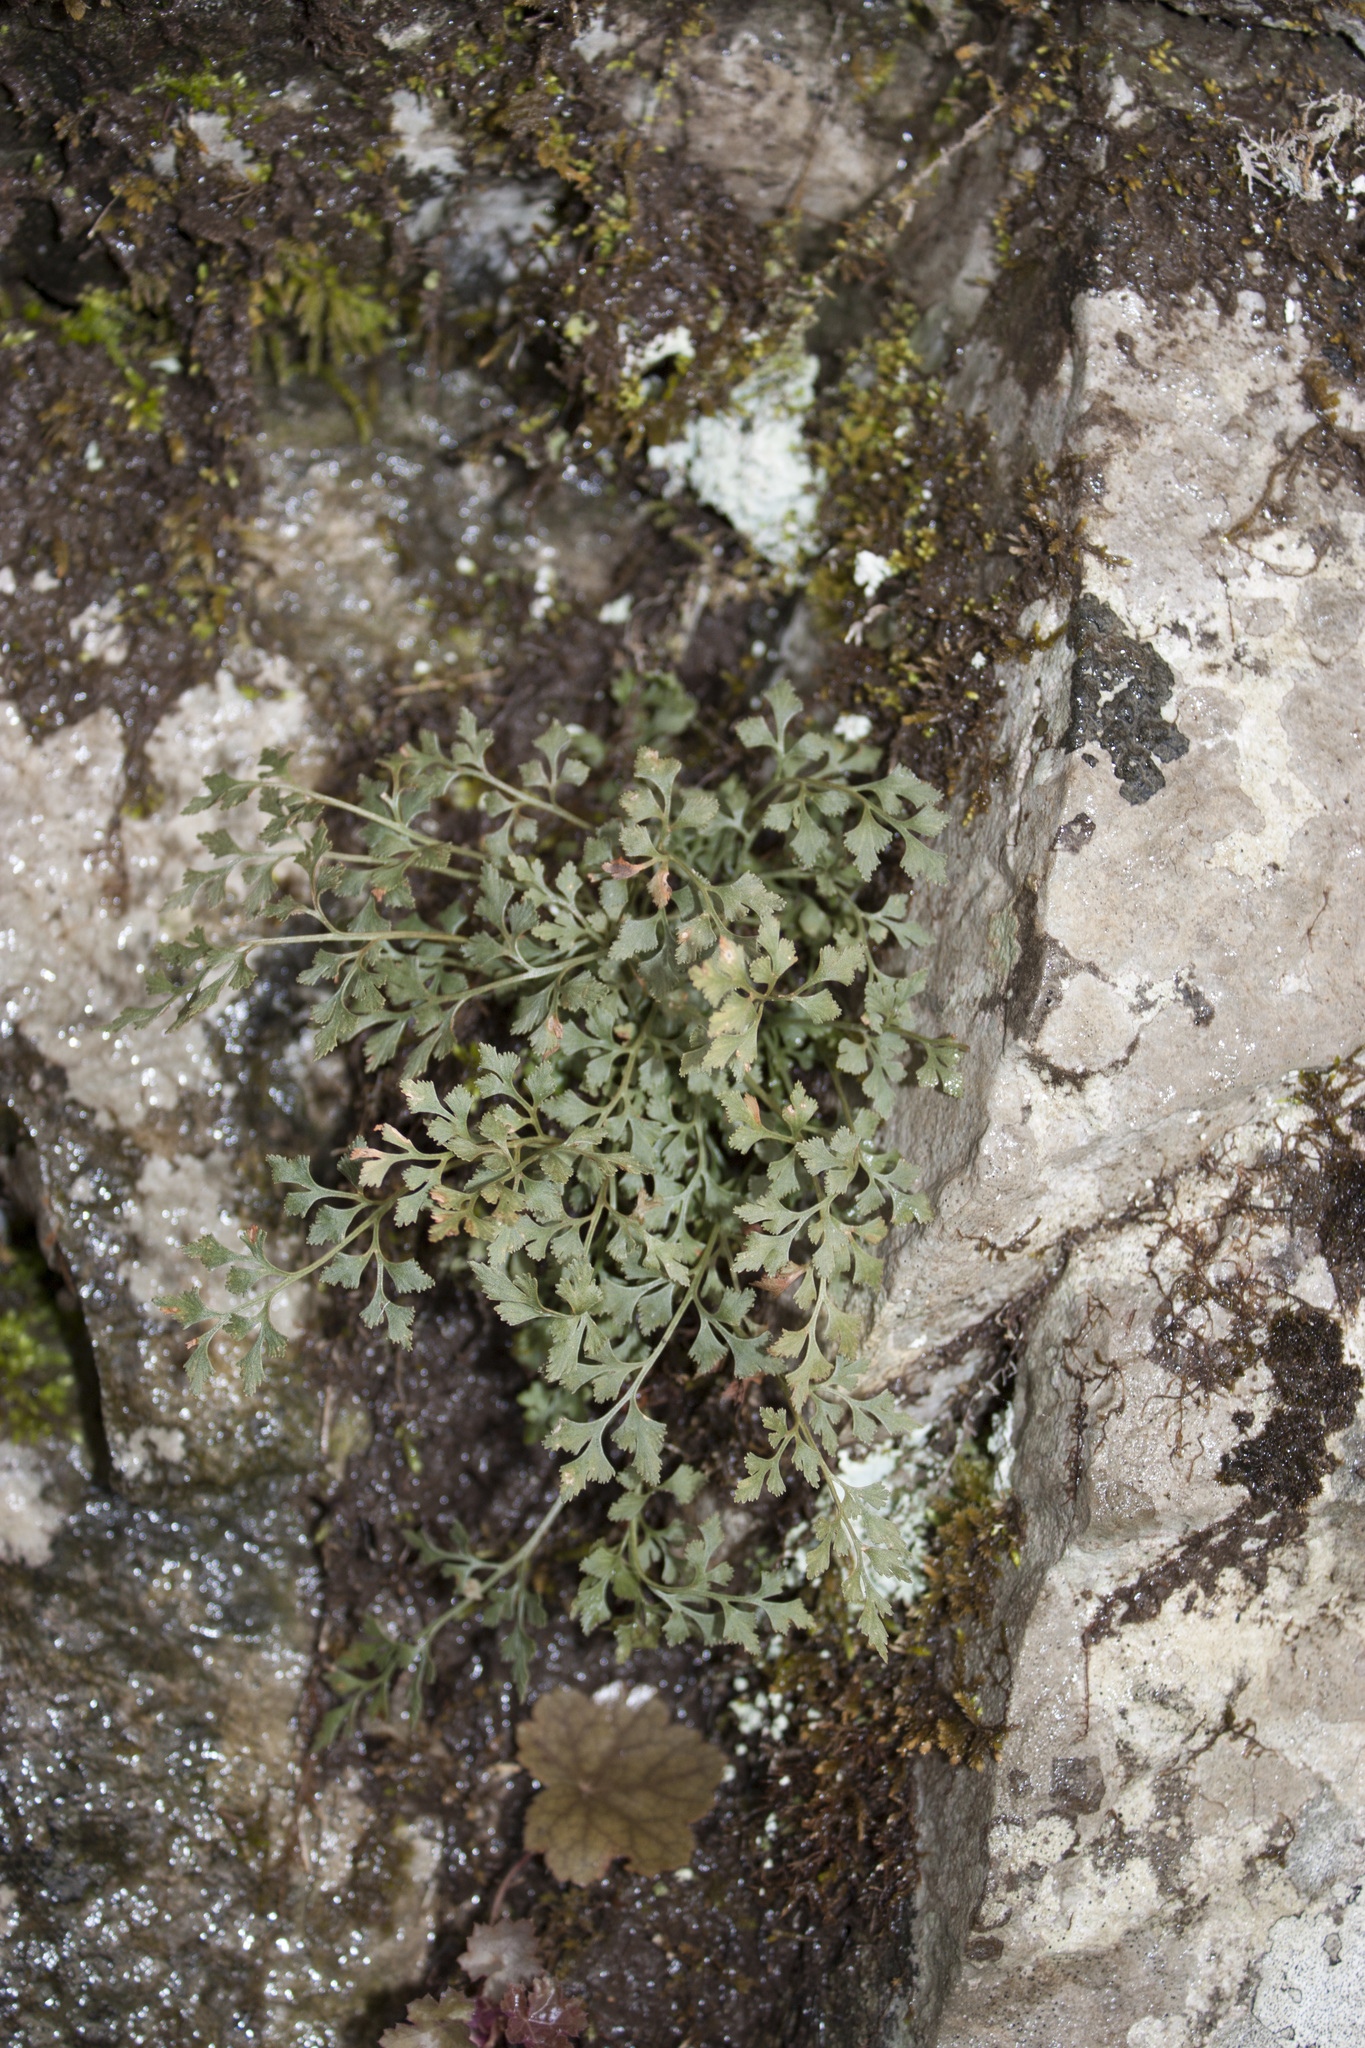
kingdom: Plantae
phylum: Tracheophyta
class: Polypodiopsida
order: Polypodiales
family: Aspleniaceae
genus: Asplenium
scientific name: Asplenium ruta-muraria
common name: Wall-rue
